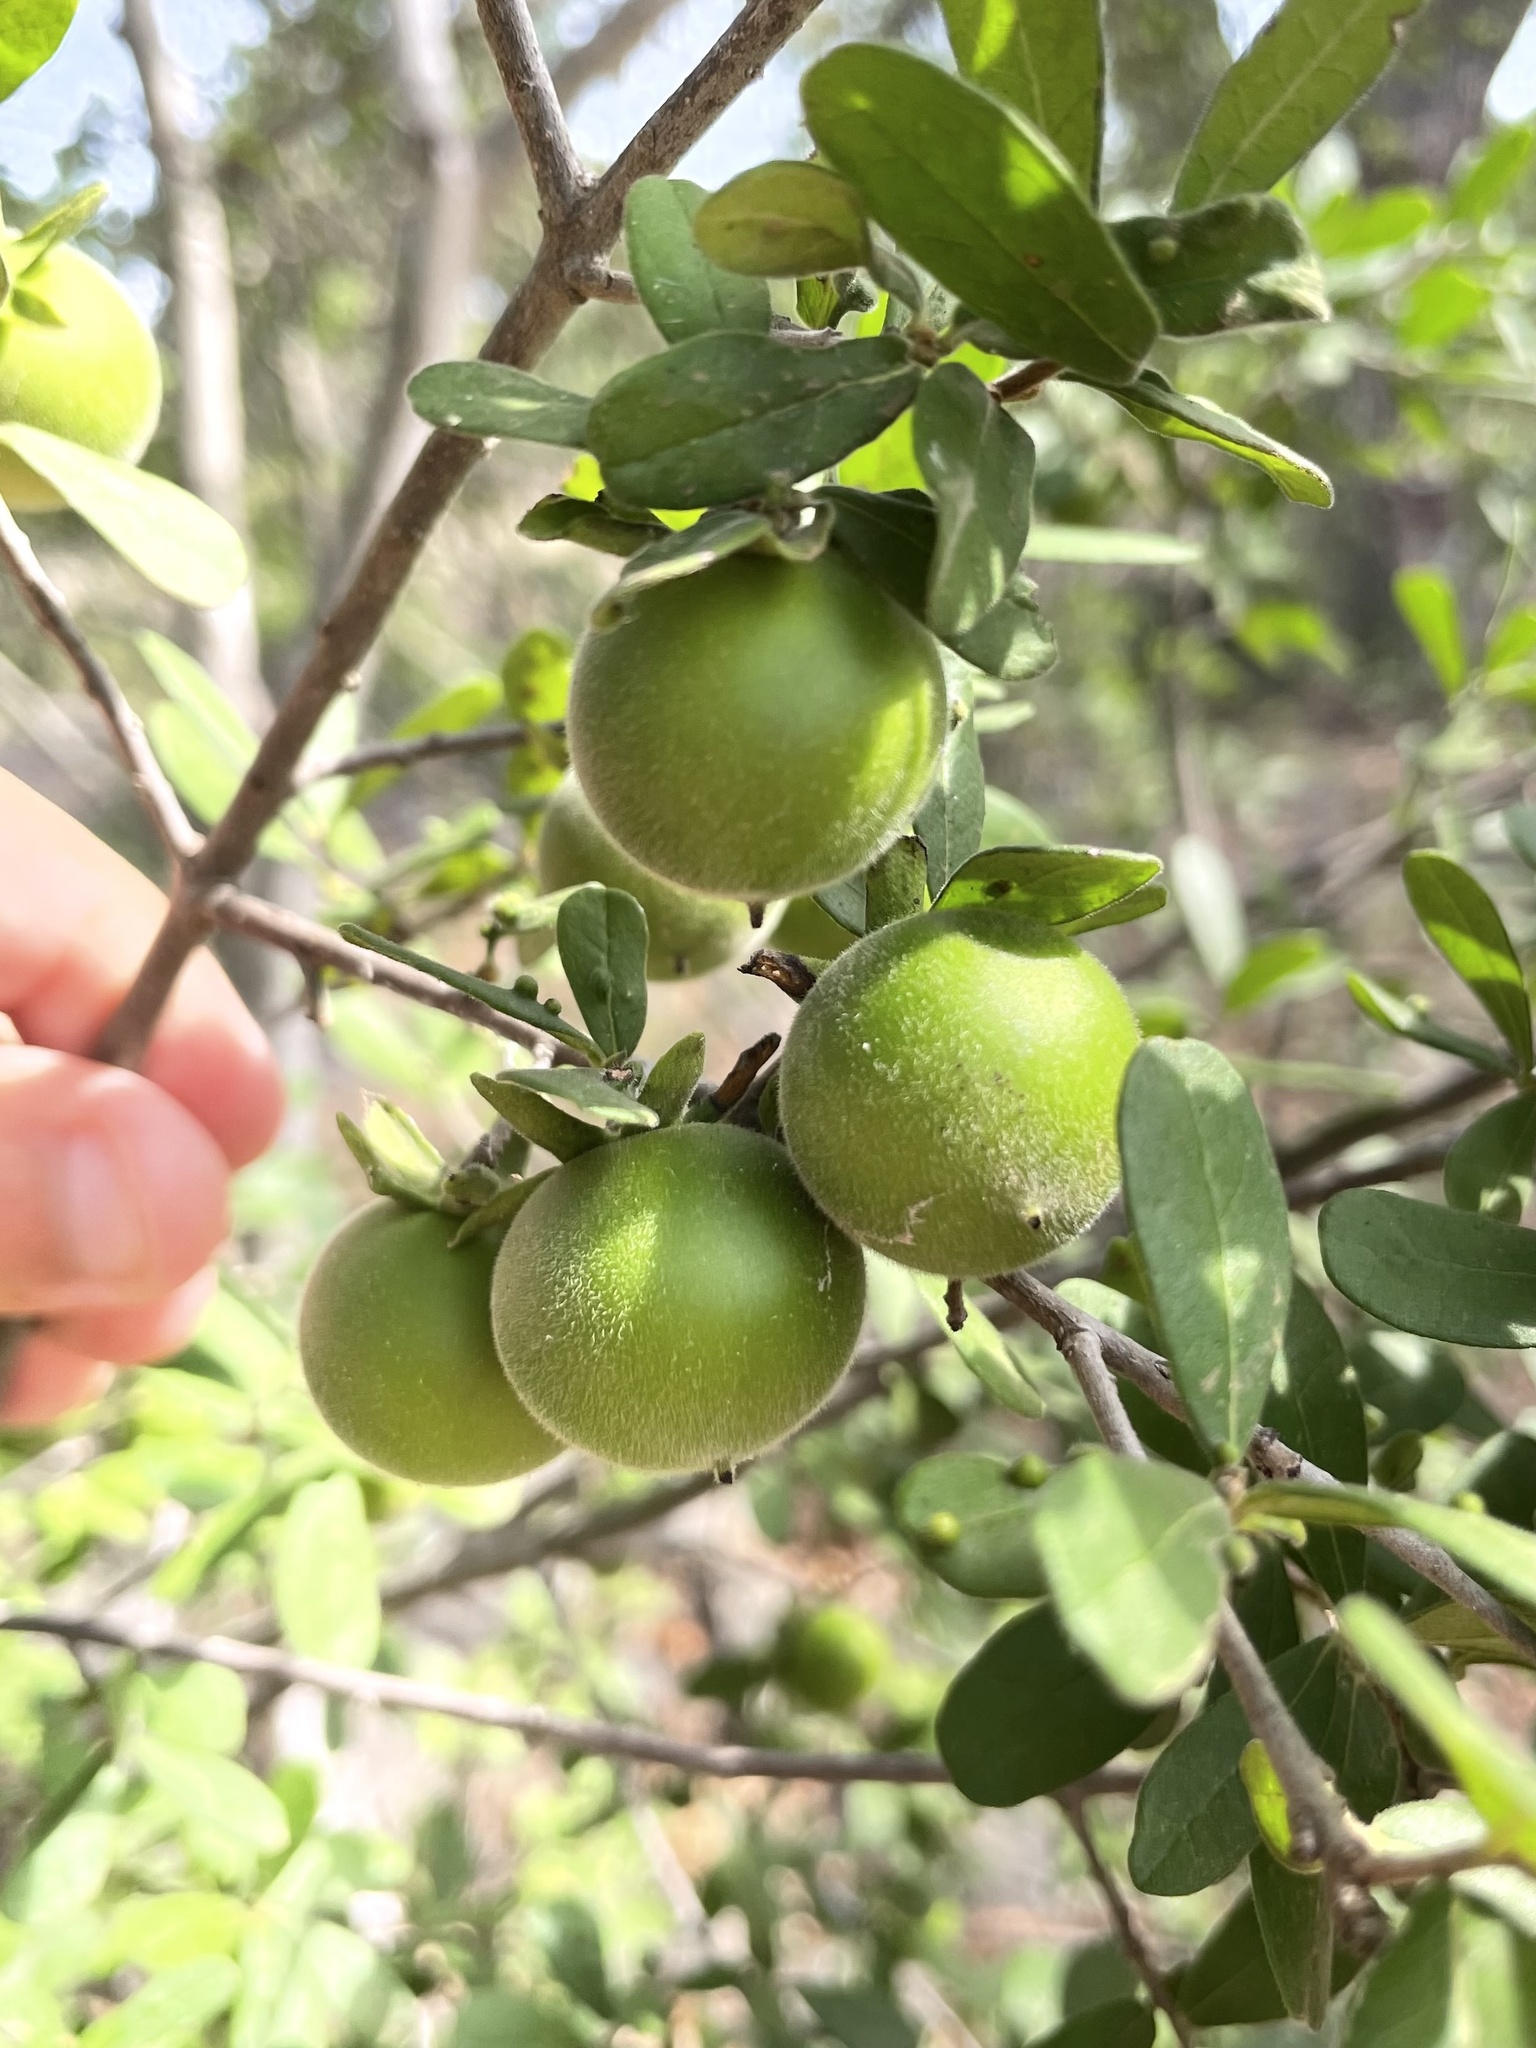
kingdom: Plantae
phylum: Tracheophyta
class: Magnoliopsida
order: Ericales
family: Ebenaceae
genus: Diospyros
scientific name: Diospyros texana
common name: Texas persimmon
